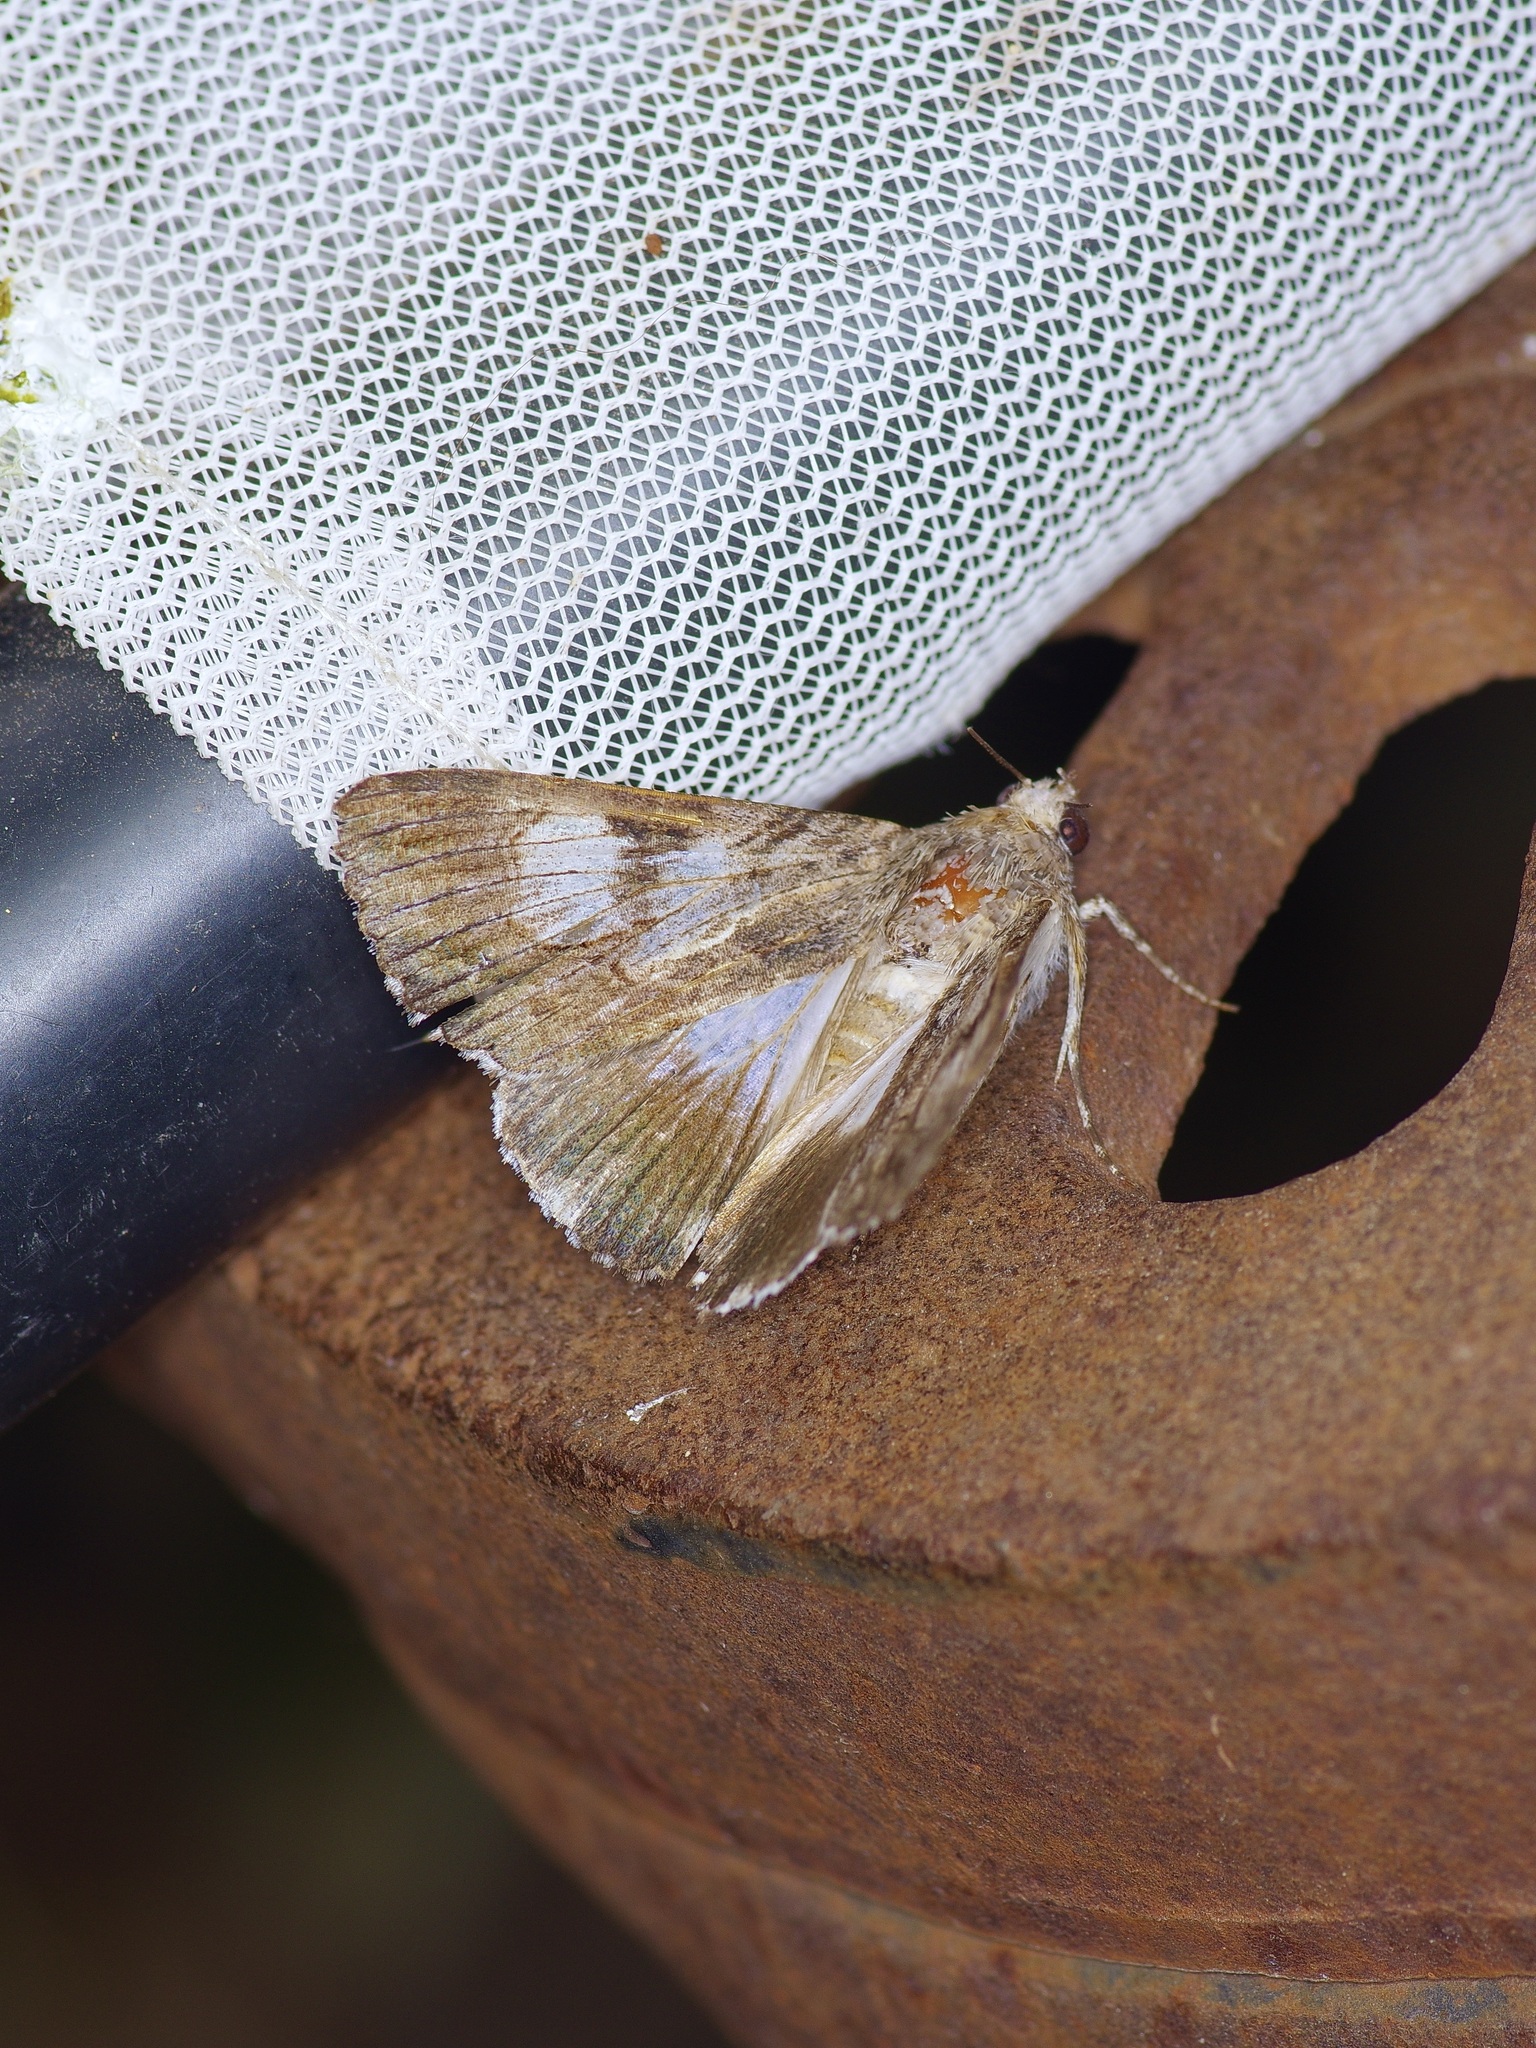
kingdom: Animalia
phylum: Arthropoda
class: Insecta
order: Lepidoptera
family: Erebidae
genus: Melipotis
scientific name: Melipotis jucunda
